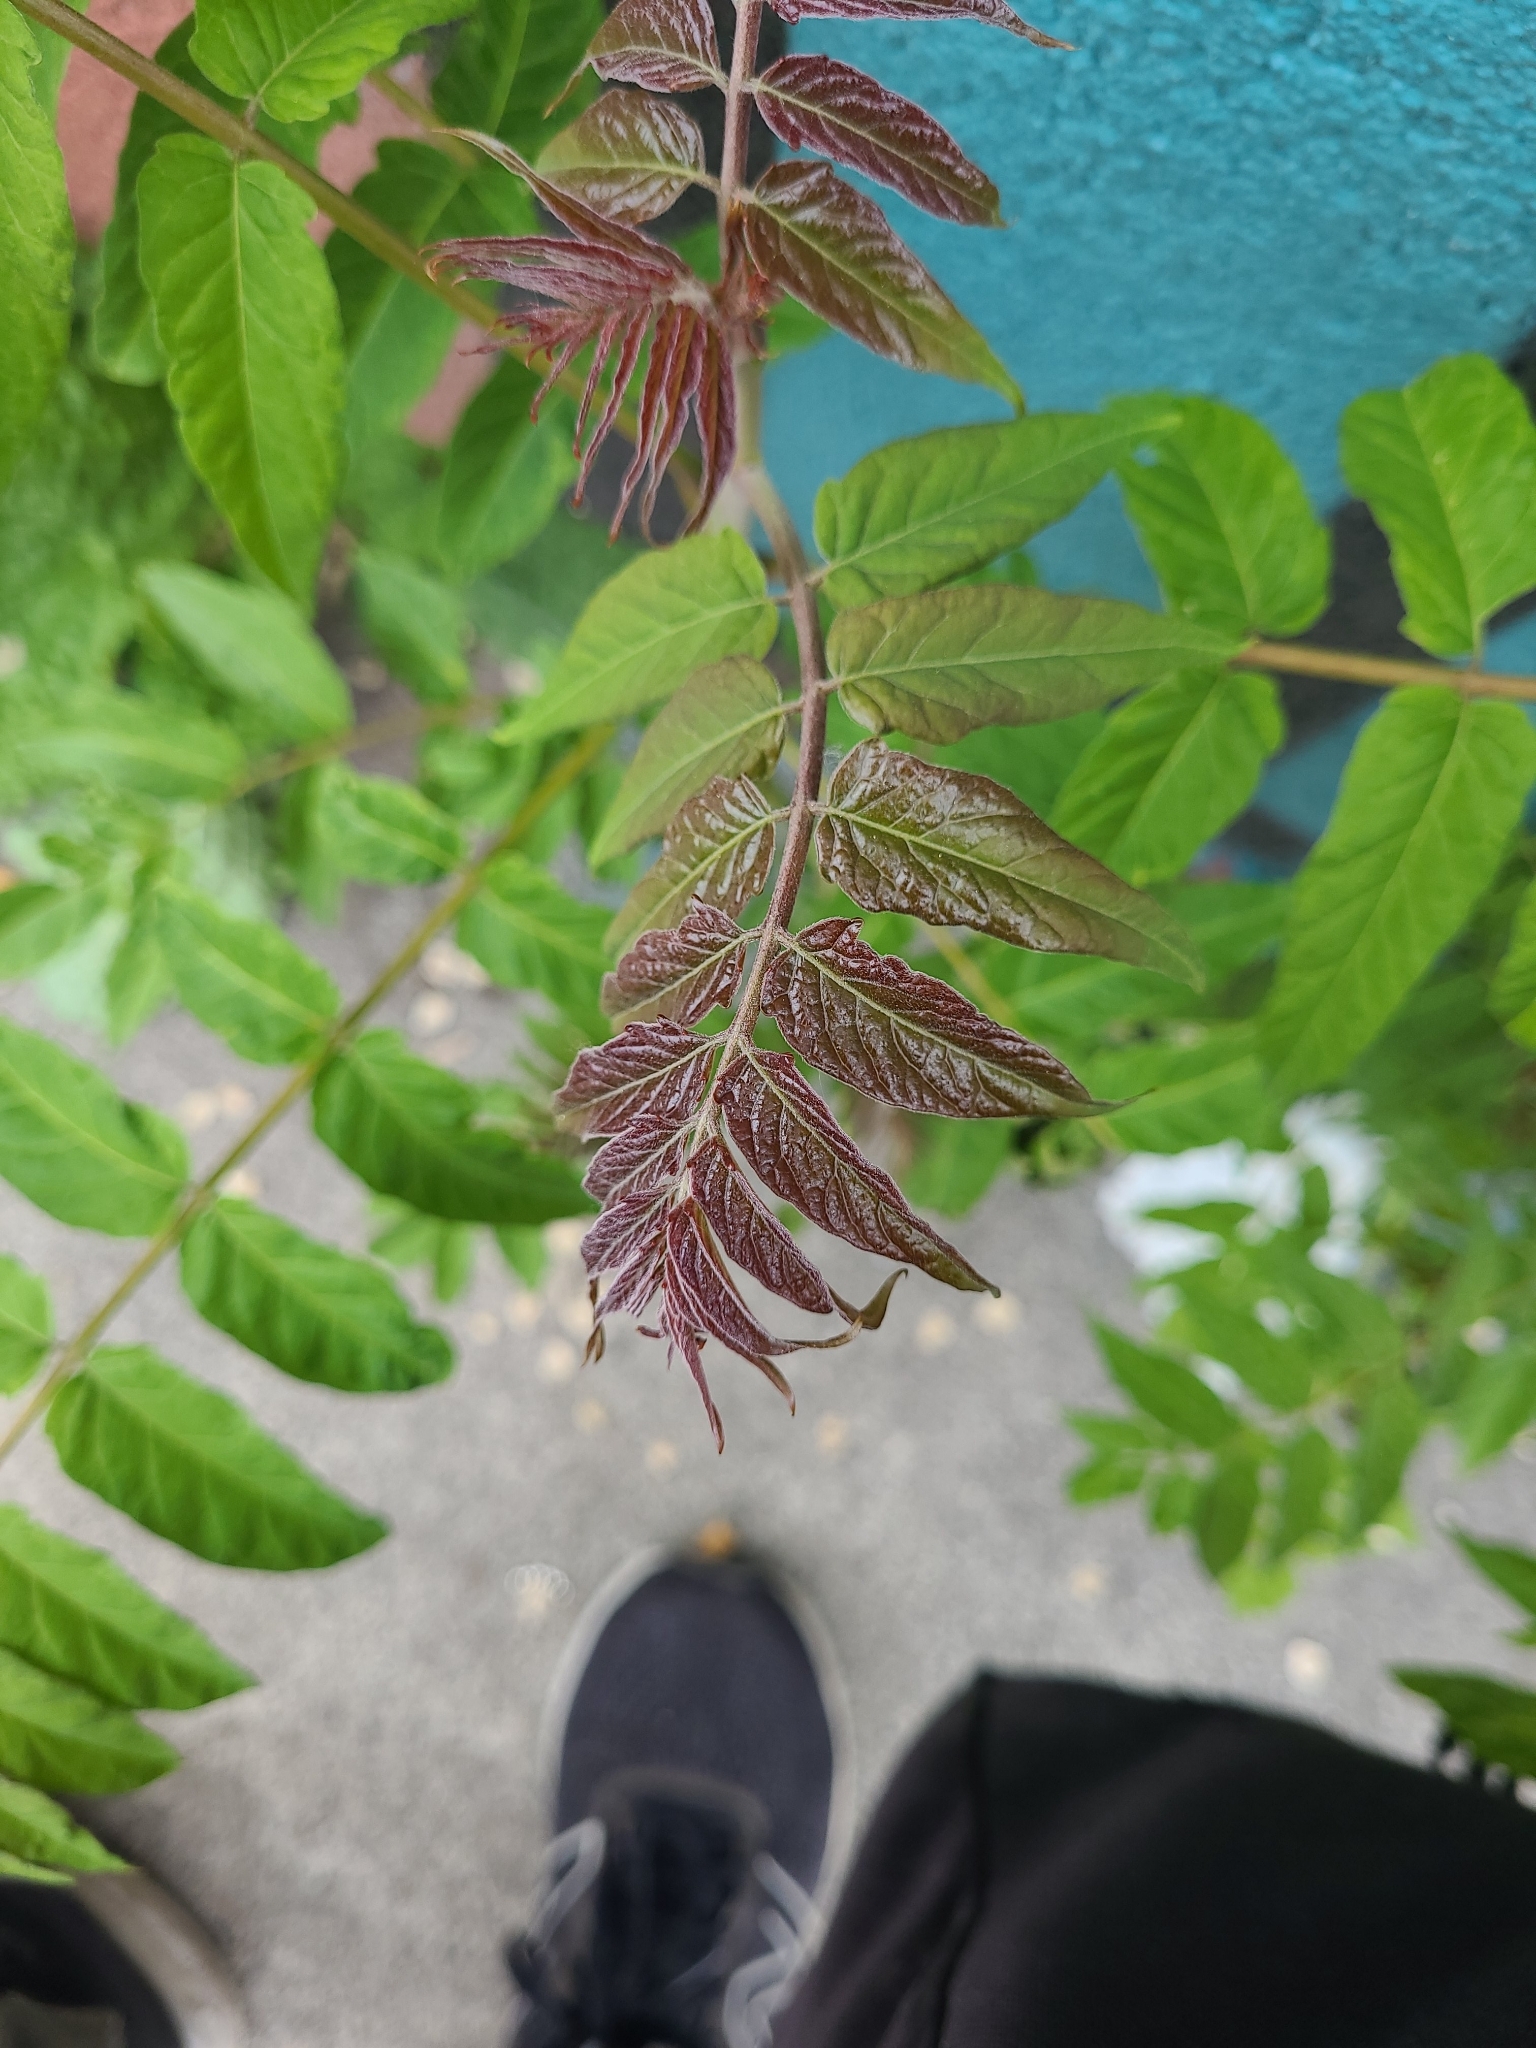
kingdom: Plantae
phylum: Tracheophyta
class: Magnoliopsida
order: Sapindales
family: Simaroubaceae
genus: Ailanthus
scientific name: Ailanthus altissima
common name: Tree-of-heaven
